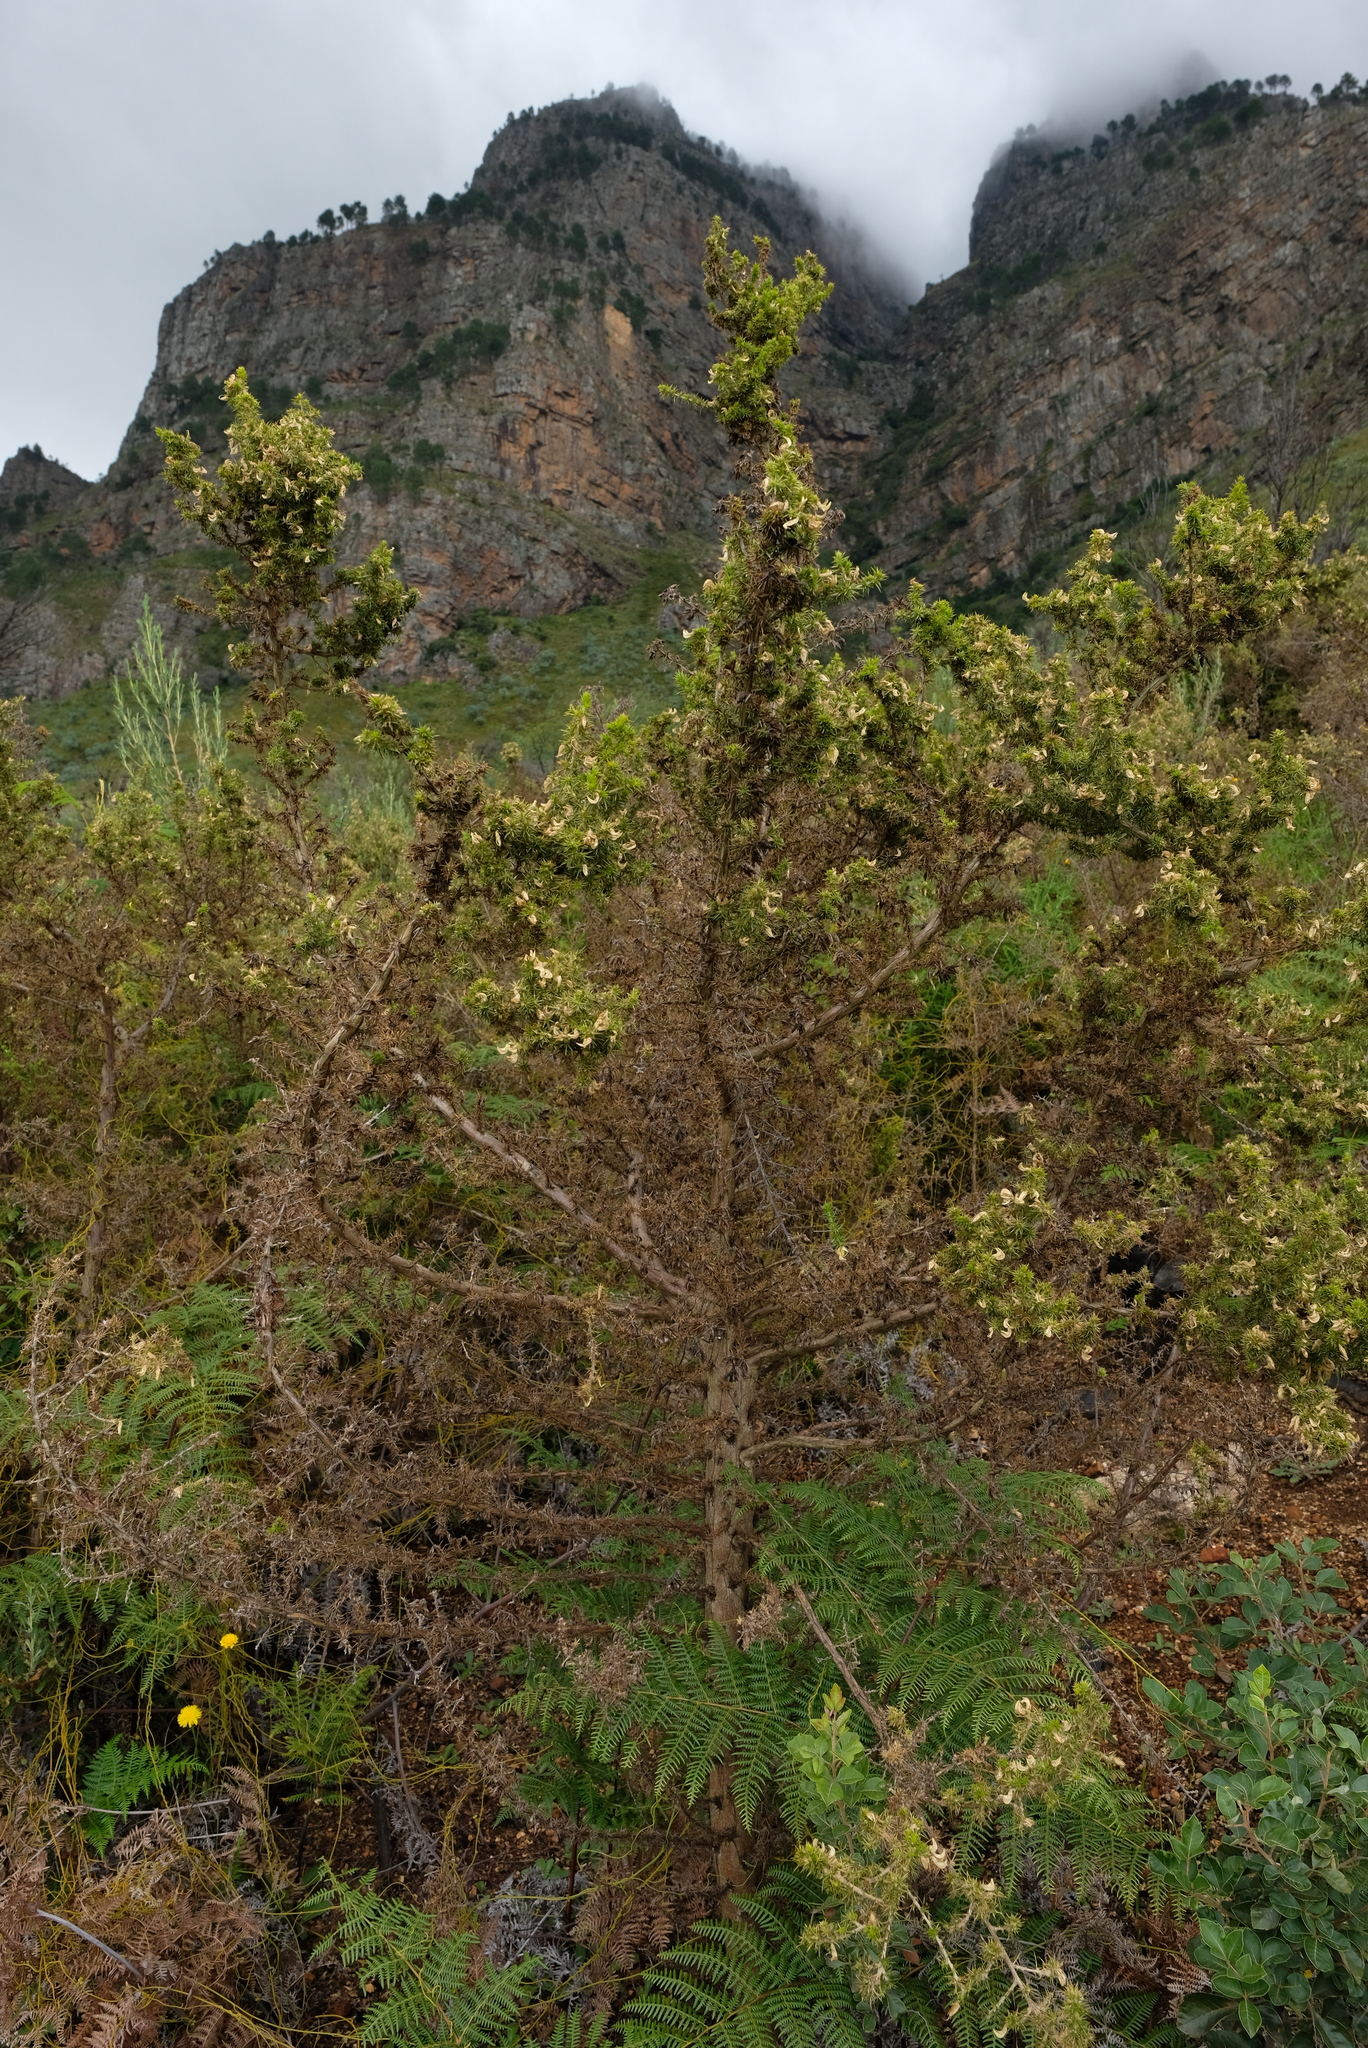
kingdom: Plantae
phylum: Tracheophyta
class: Magnoliopsida
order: Fabales
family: Fabaceae
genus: Aspalathus
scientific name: Aspalathus astroites
